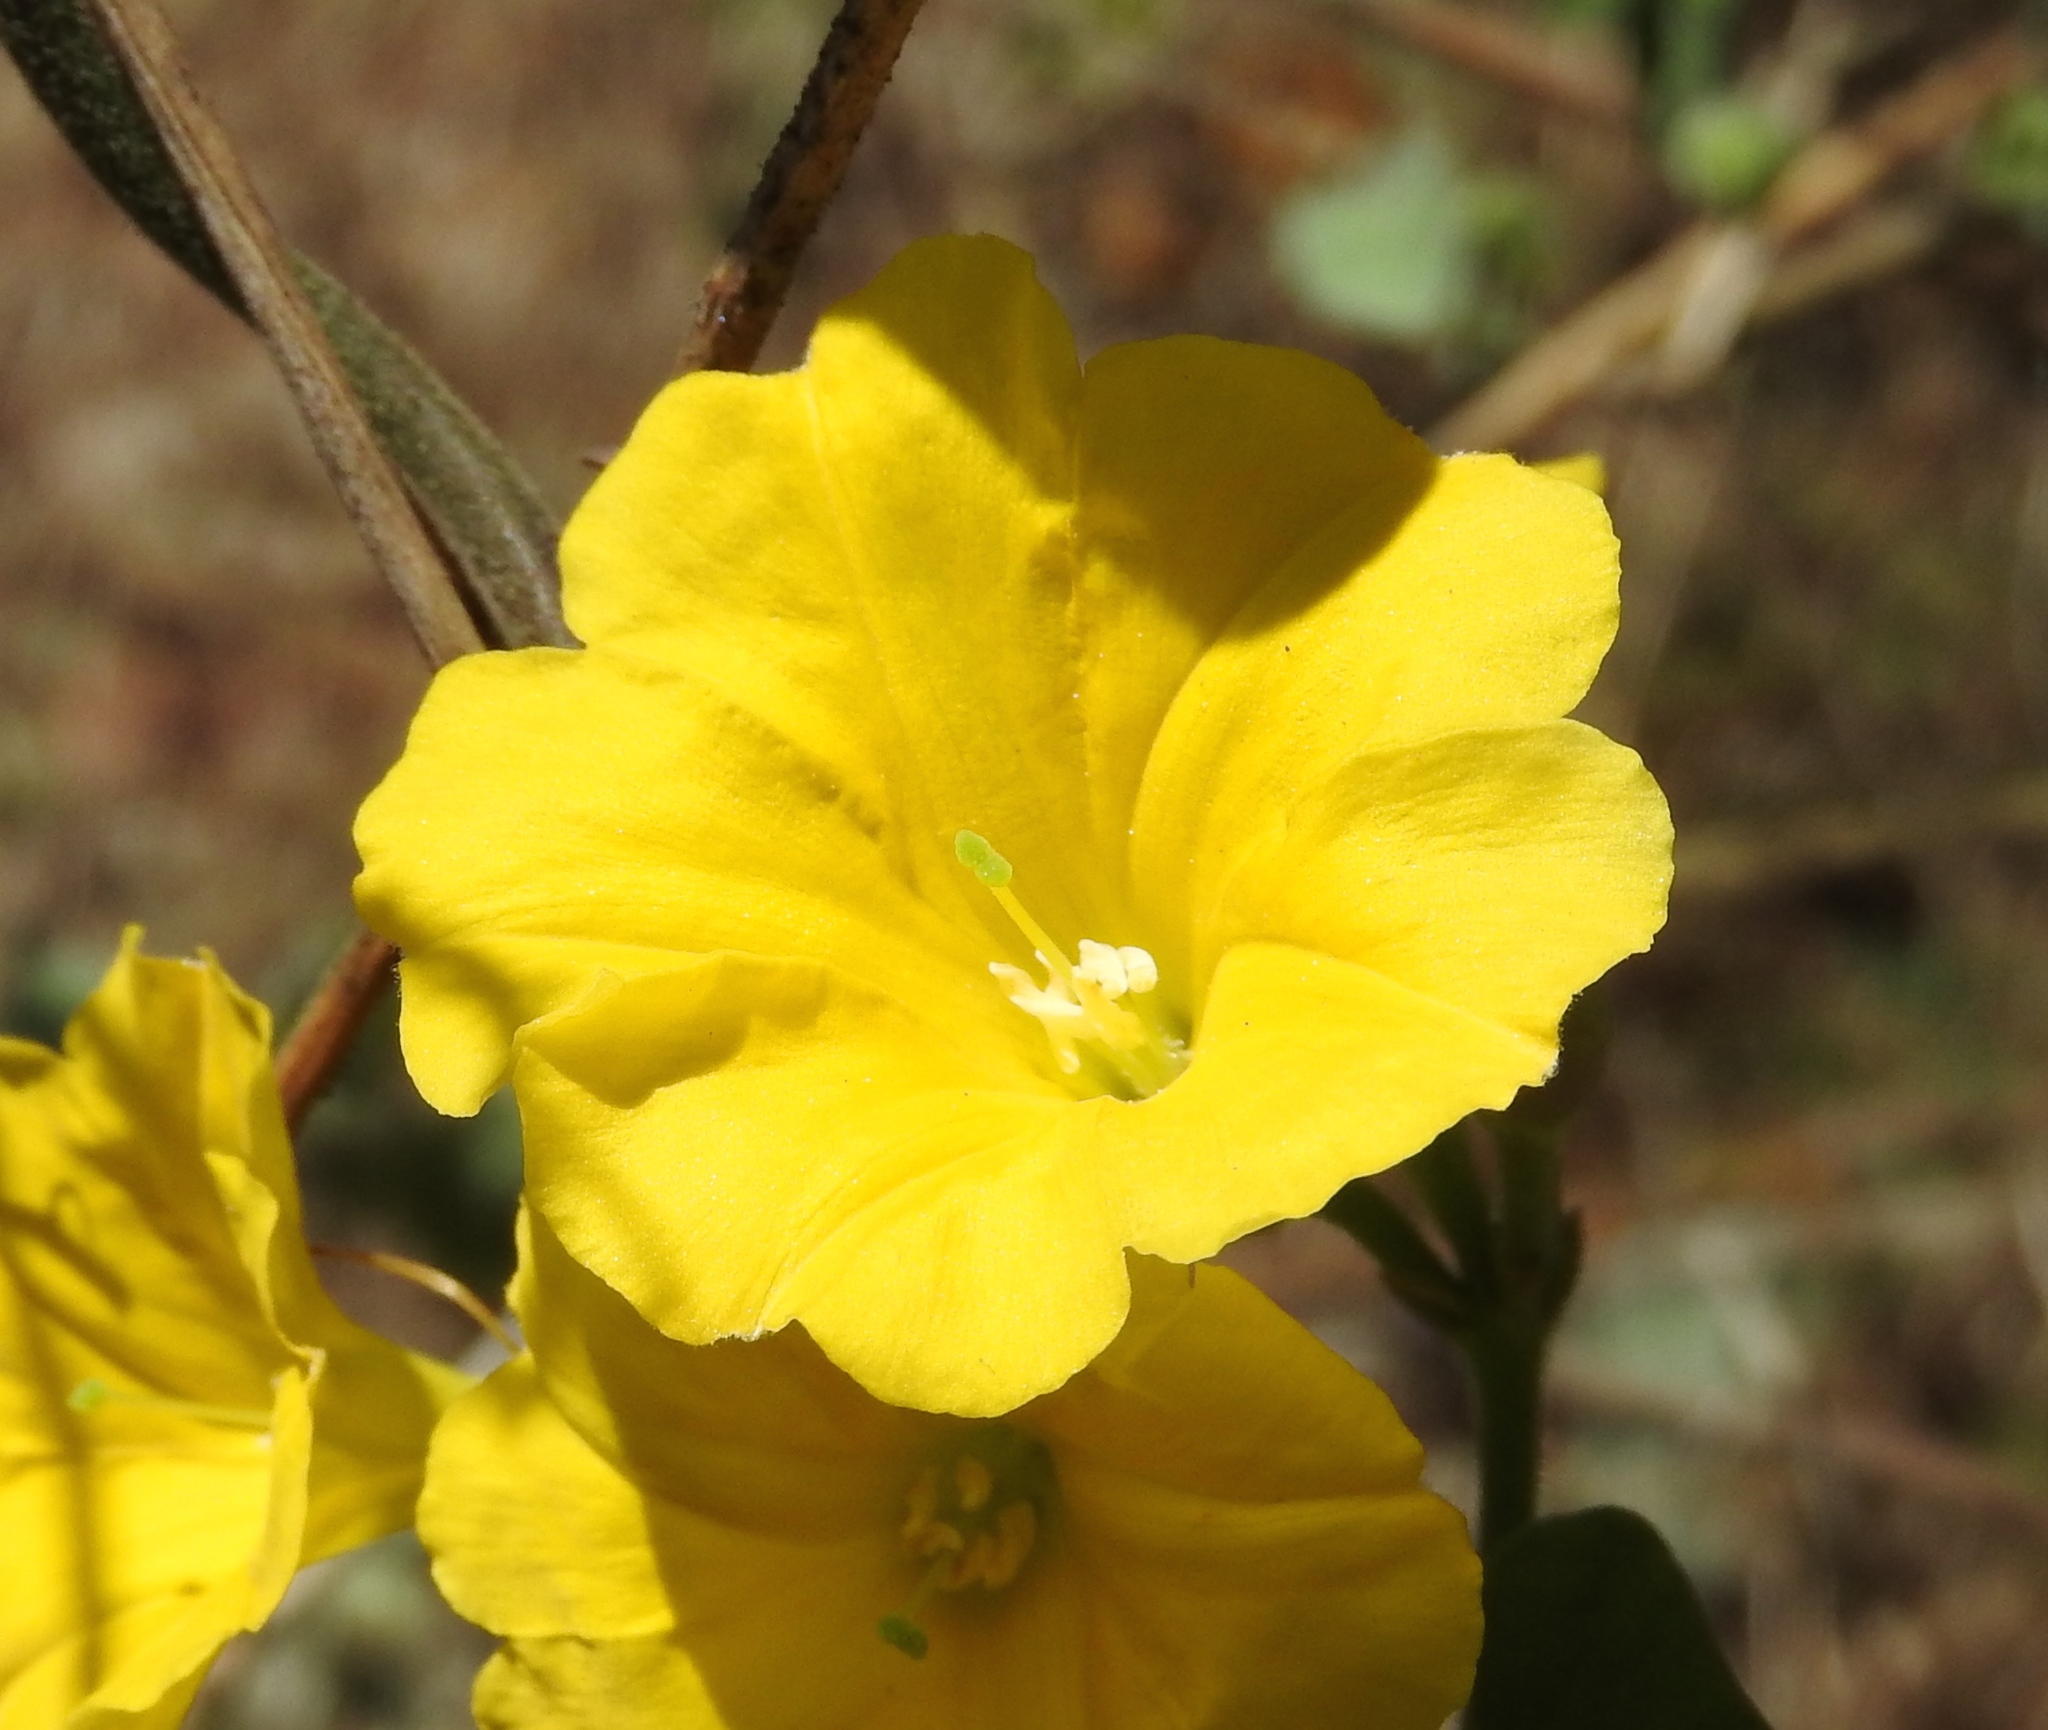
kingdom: Plantae
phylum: Tracheophyta
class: Magnoliopsida
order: Solanales
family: Convolvulaceae
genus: Camonea
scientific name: Camonea umbellata
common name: Hogvine
